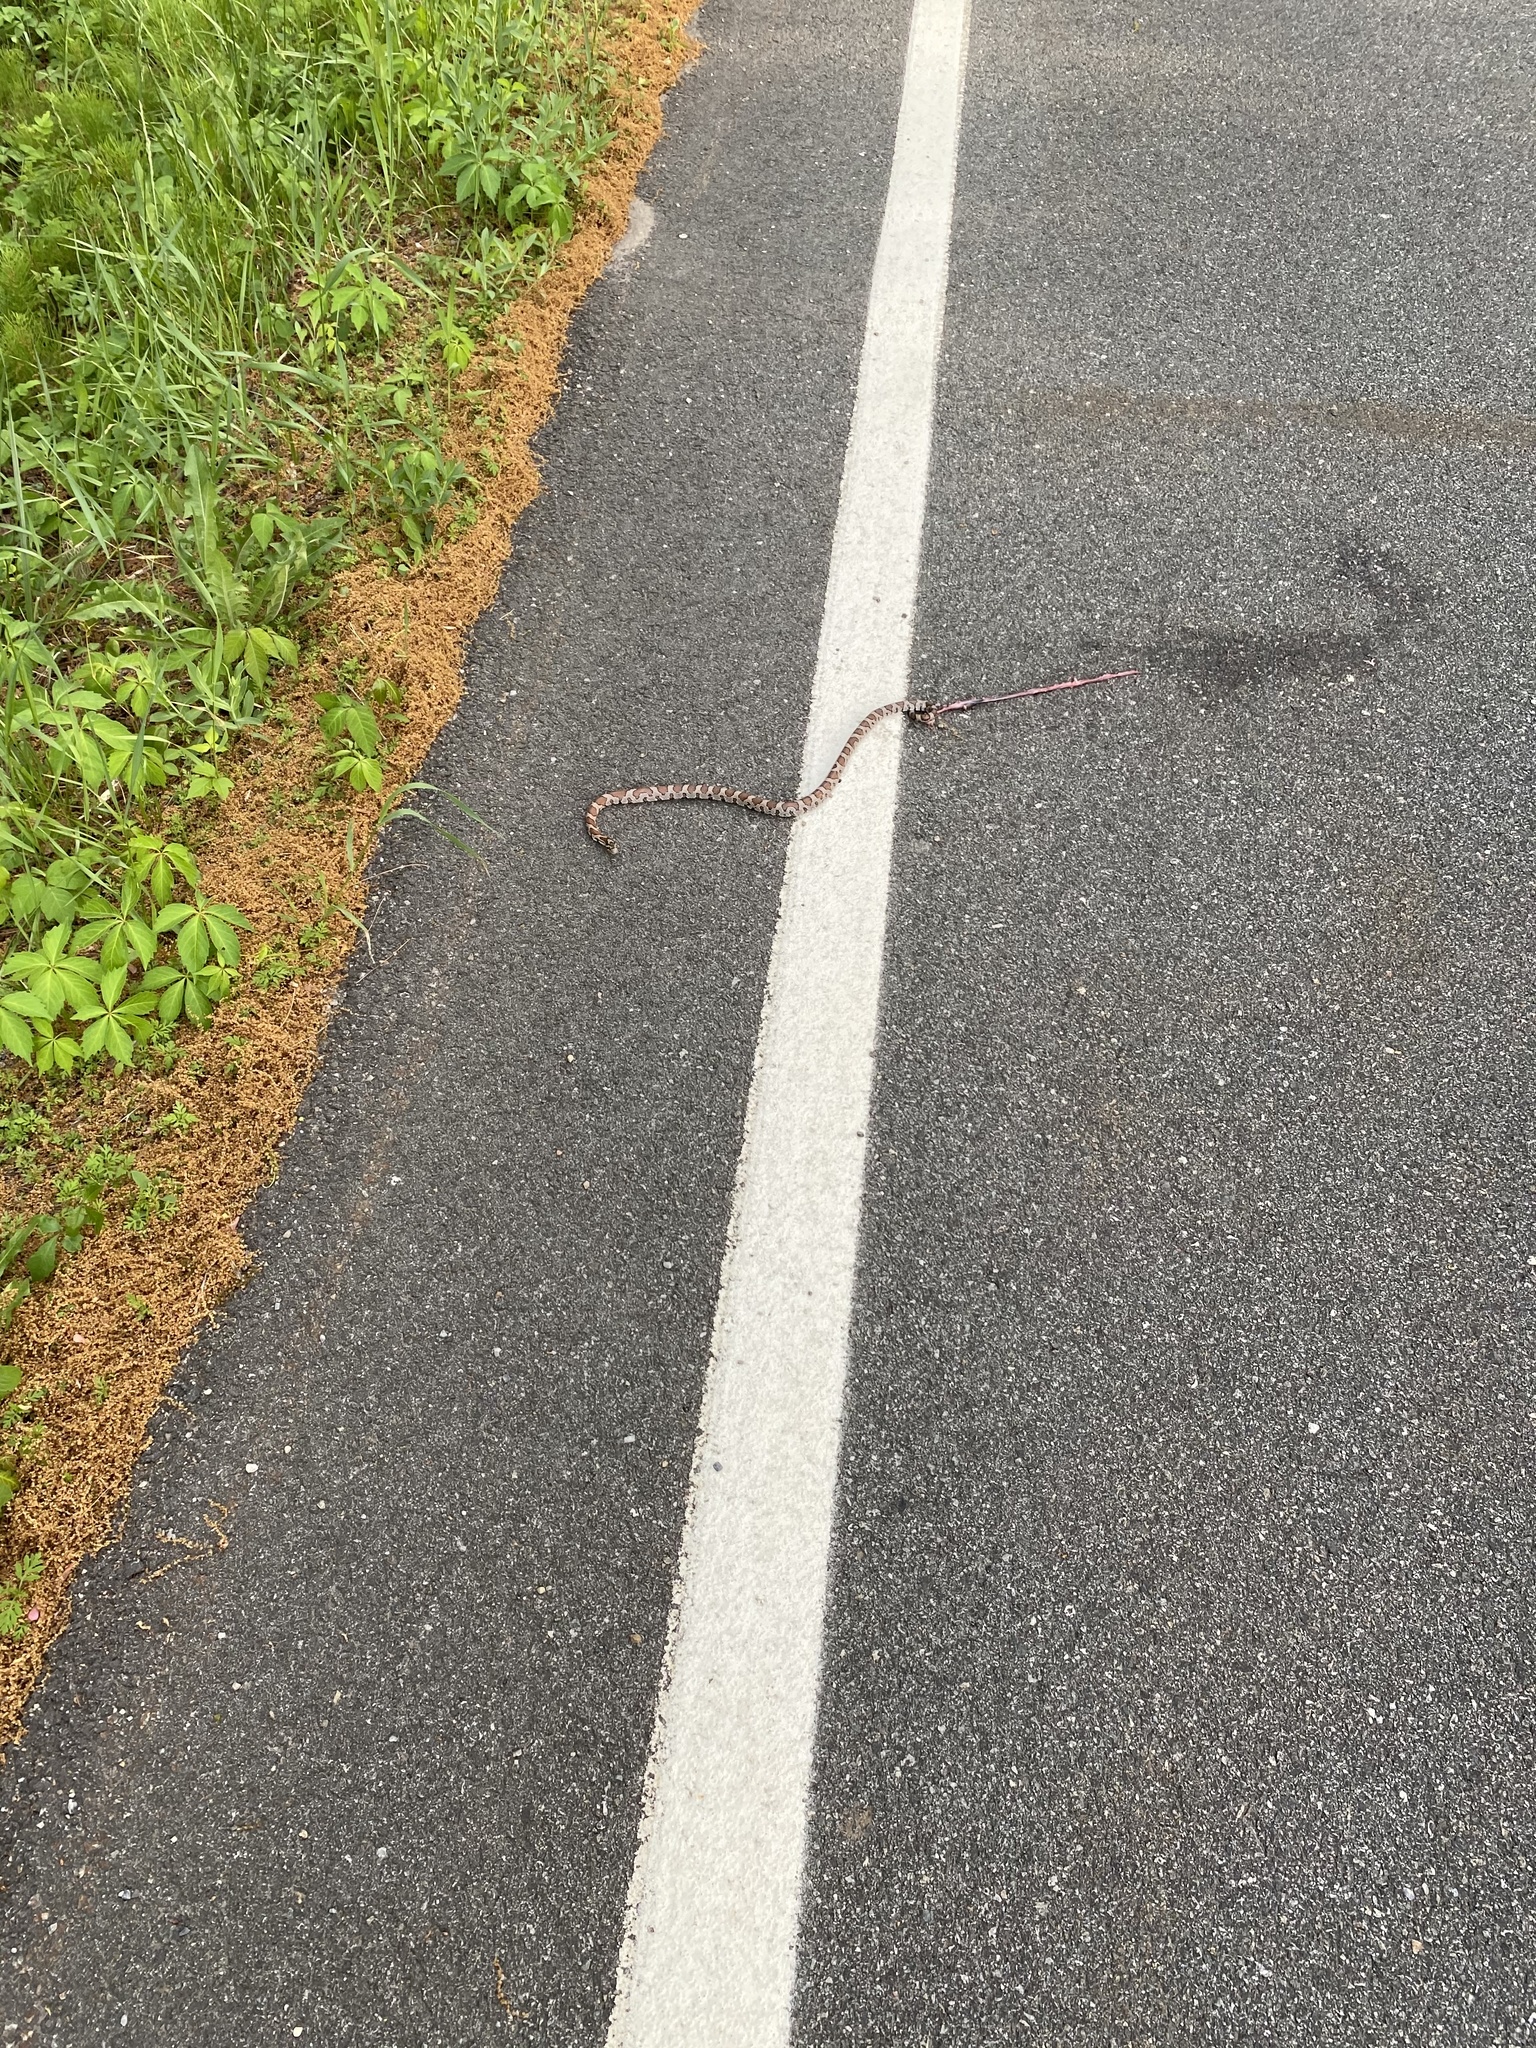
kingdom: Animalia
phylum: Chordata
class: Squamata
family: Colubridae
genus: Lampropeltis
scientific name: Lampropeltis triangulum
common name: Eastern milksnake
